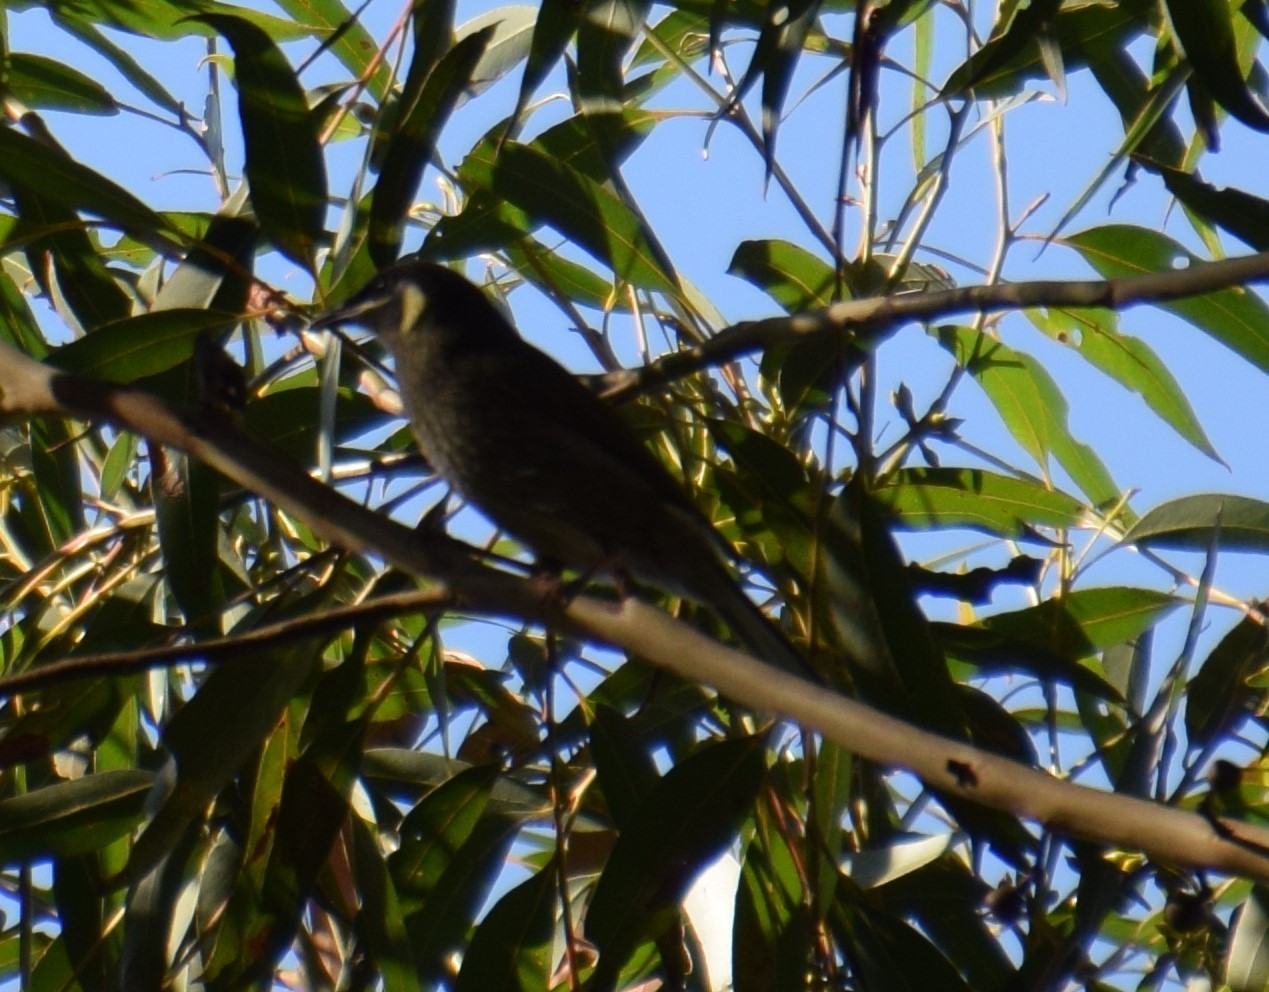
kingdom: Animalia
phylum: Chordata
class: Aves
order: Passeriformes
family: Meliphagidae
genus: Meliphaga
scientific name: Meliphaga lewinii
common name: Lewin's honeyeater
